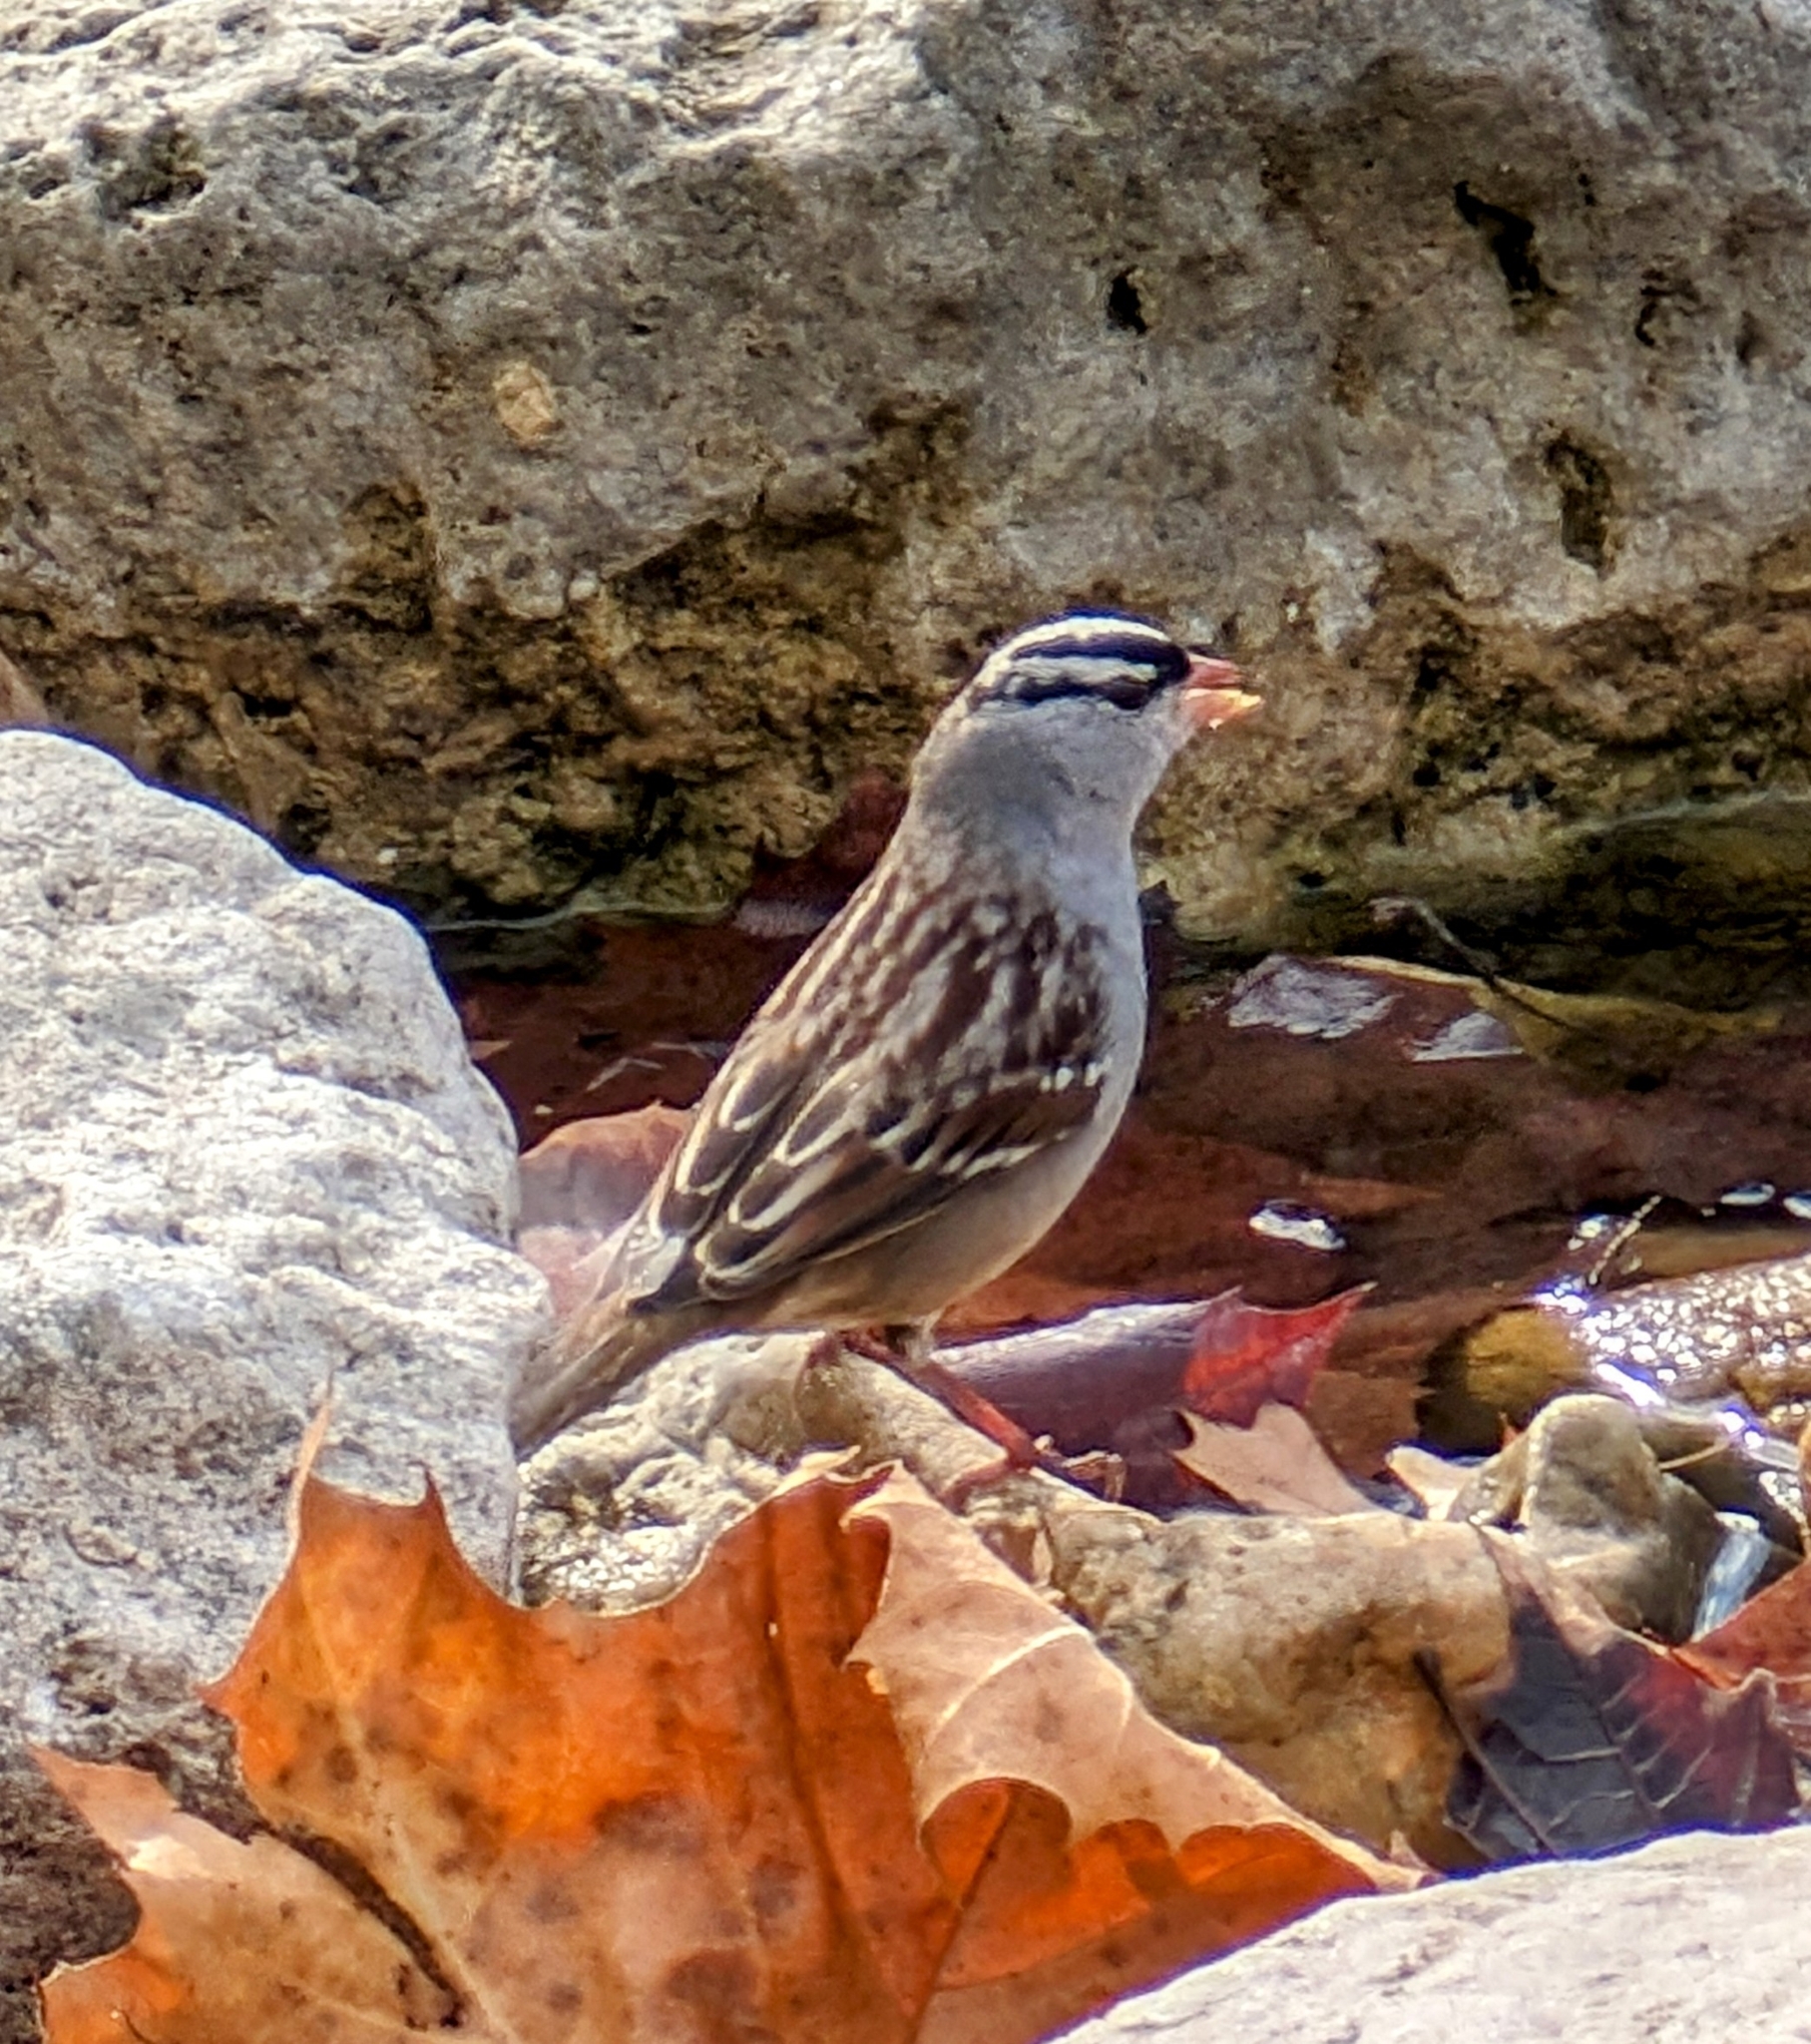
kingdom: Animalia
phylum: Chordata
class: Aves
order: Passeriformes
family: Passerellidae
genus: Zonotrichia
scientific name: Zonotrichia leucophrys
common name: White-crowned sparrow
